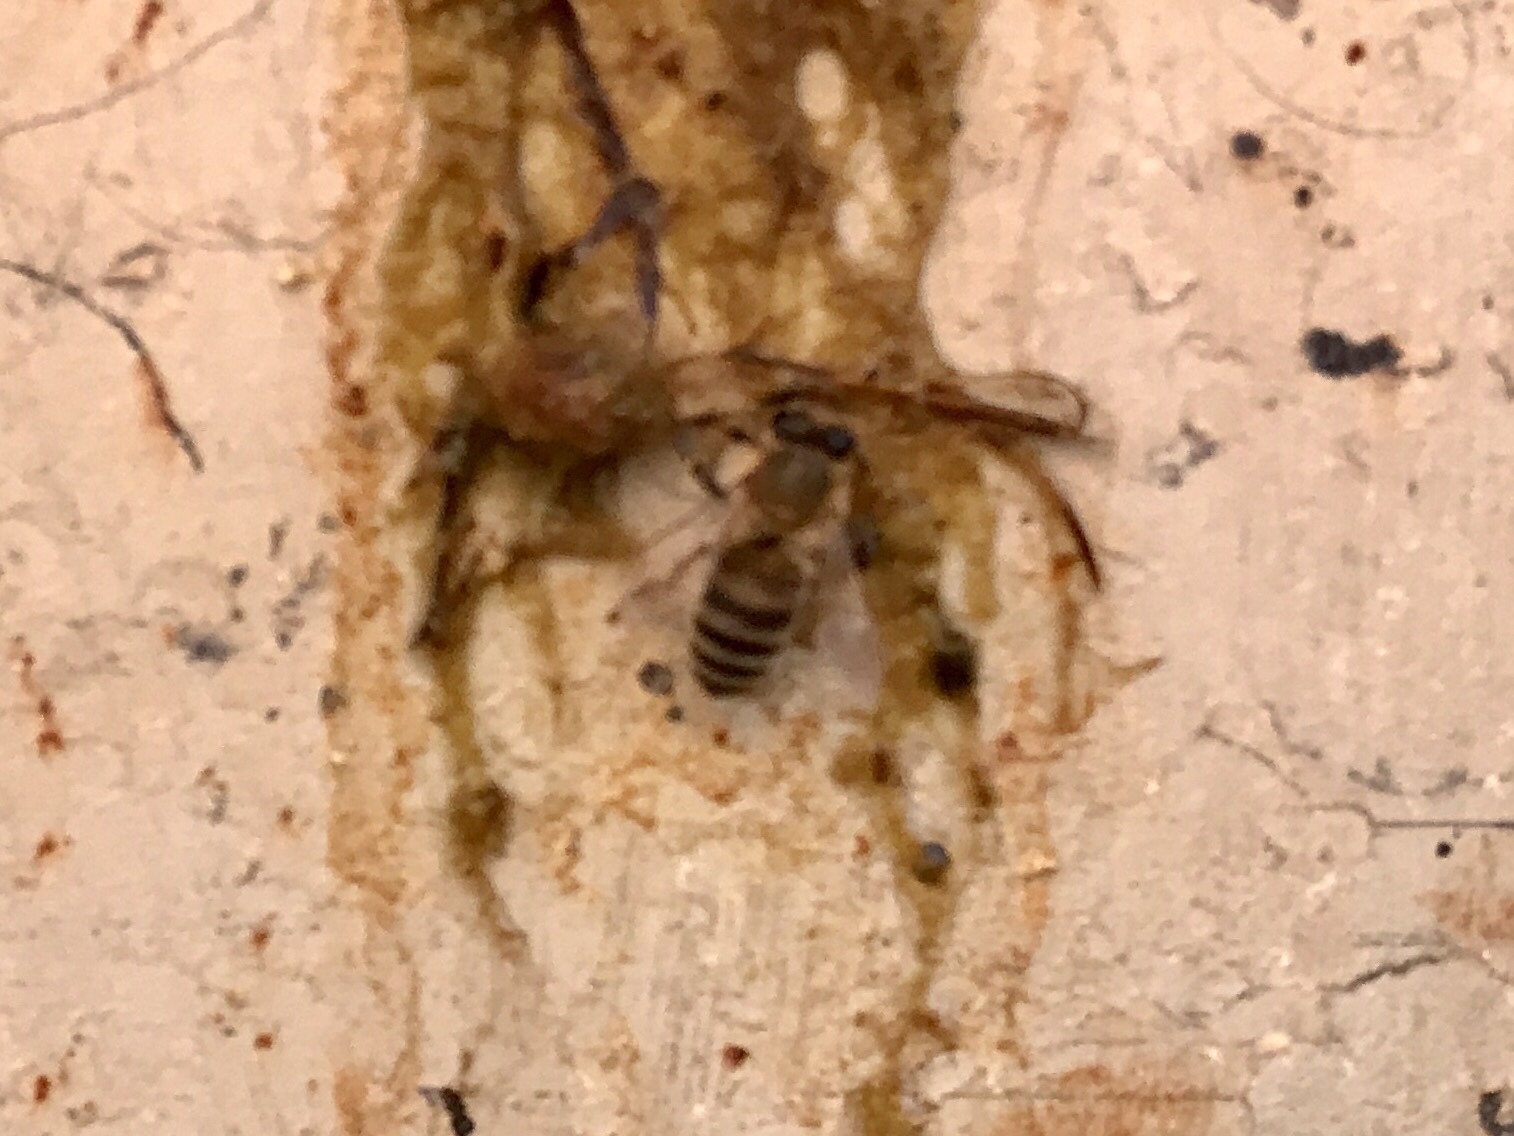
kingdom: Animalia
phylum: Arthropoda
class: Insecta
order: Hymenoptera
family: Apidae
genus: Apis
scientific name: Apis mellifera
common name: Honey bee
